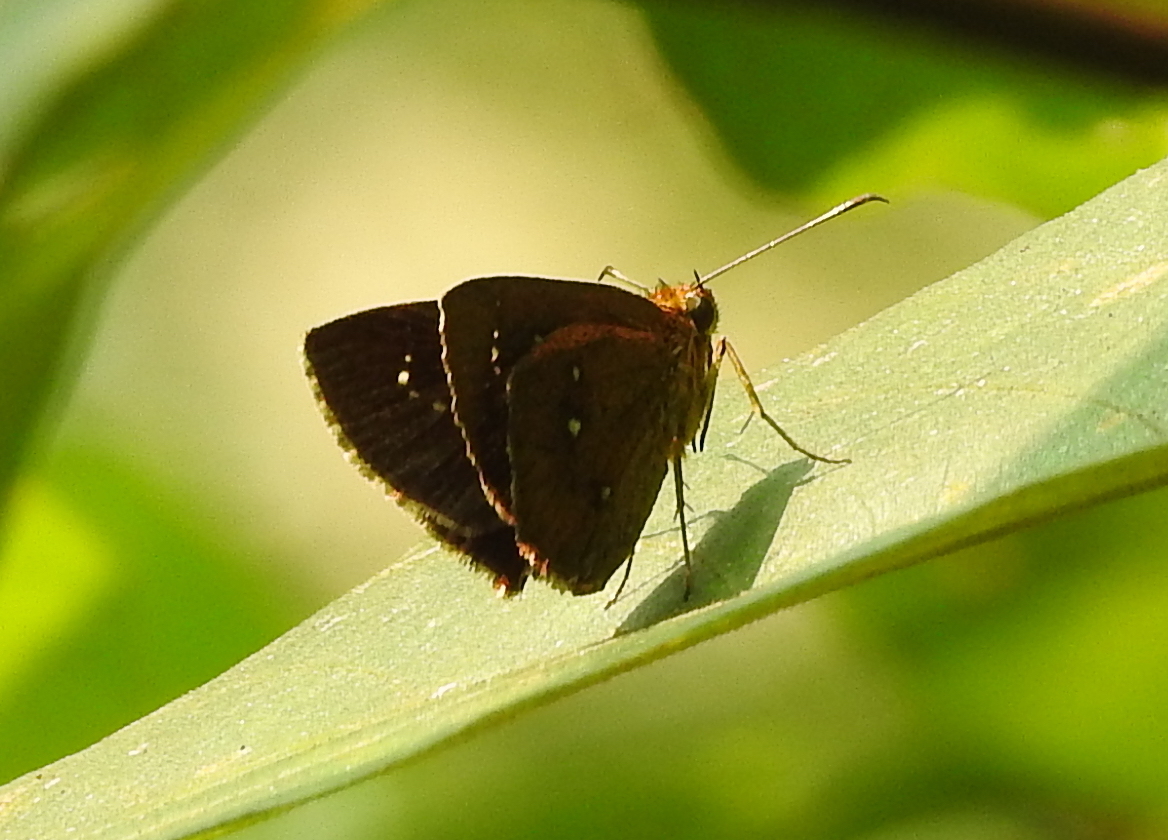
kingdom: Animalia
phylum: Arthropoda
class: Insecta
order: Lepidoptera
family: Hesperiidae
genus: Iambrix
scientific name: Iambrix salsala
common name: Chestnut bob
